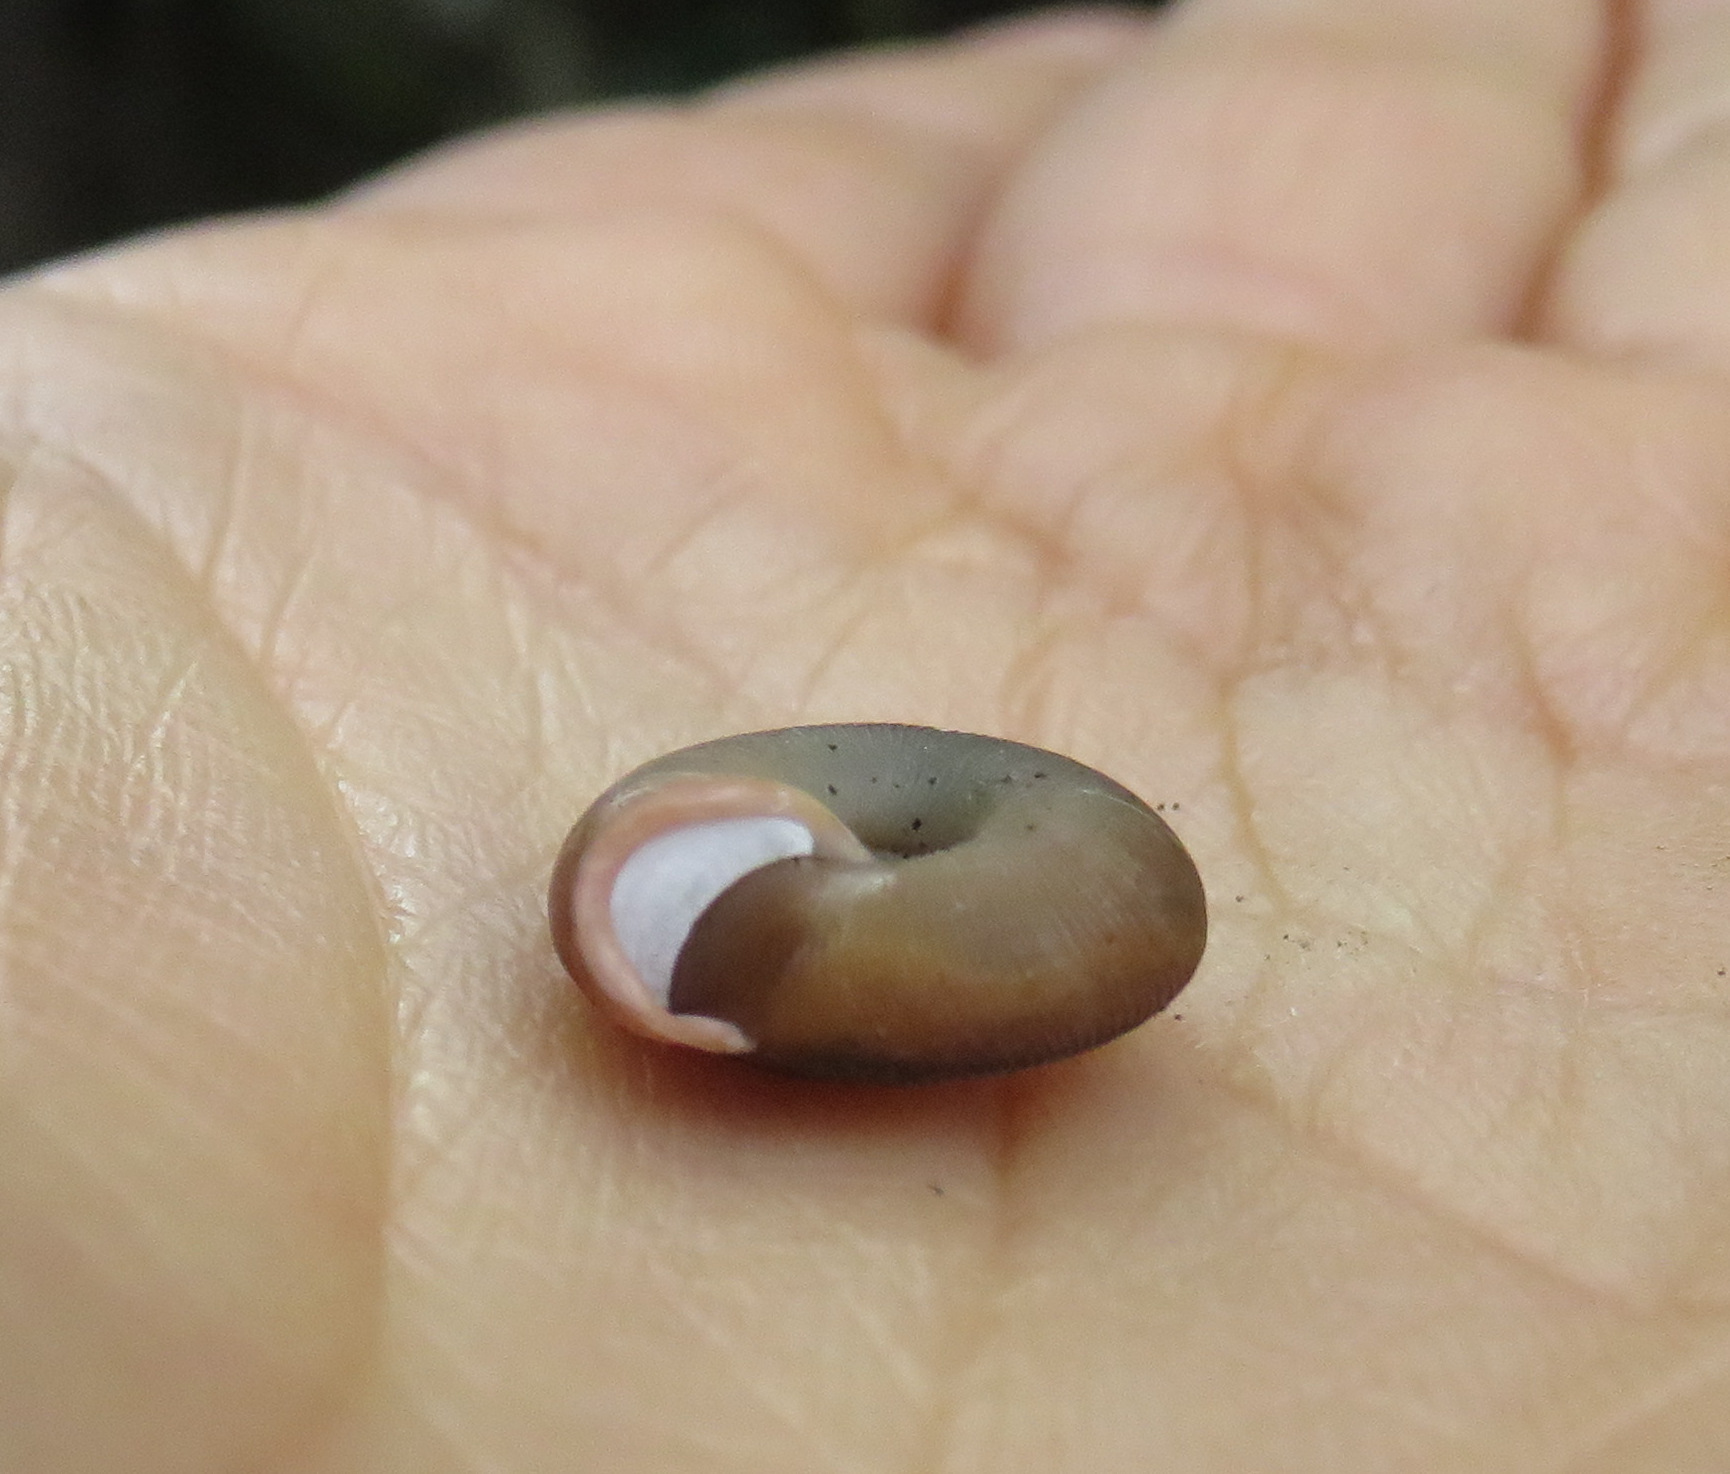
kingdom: Animalia
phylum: Mollusca
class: Gastropoda
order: Stylommatophora
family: Trissexodontidae
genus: Oestophora
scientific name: Oestophora silvae
